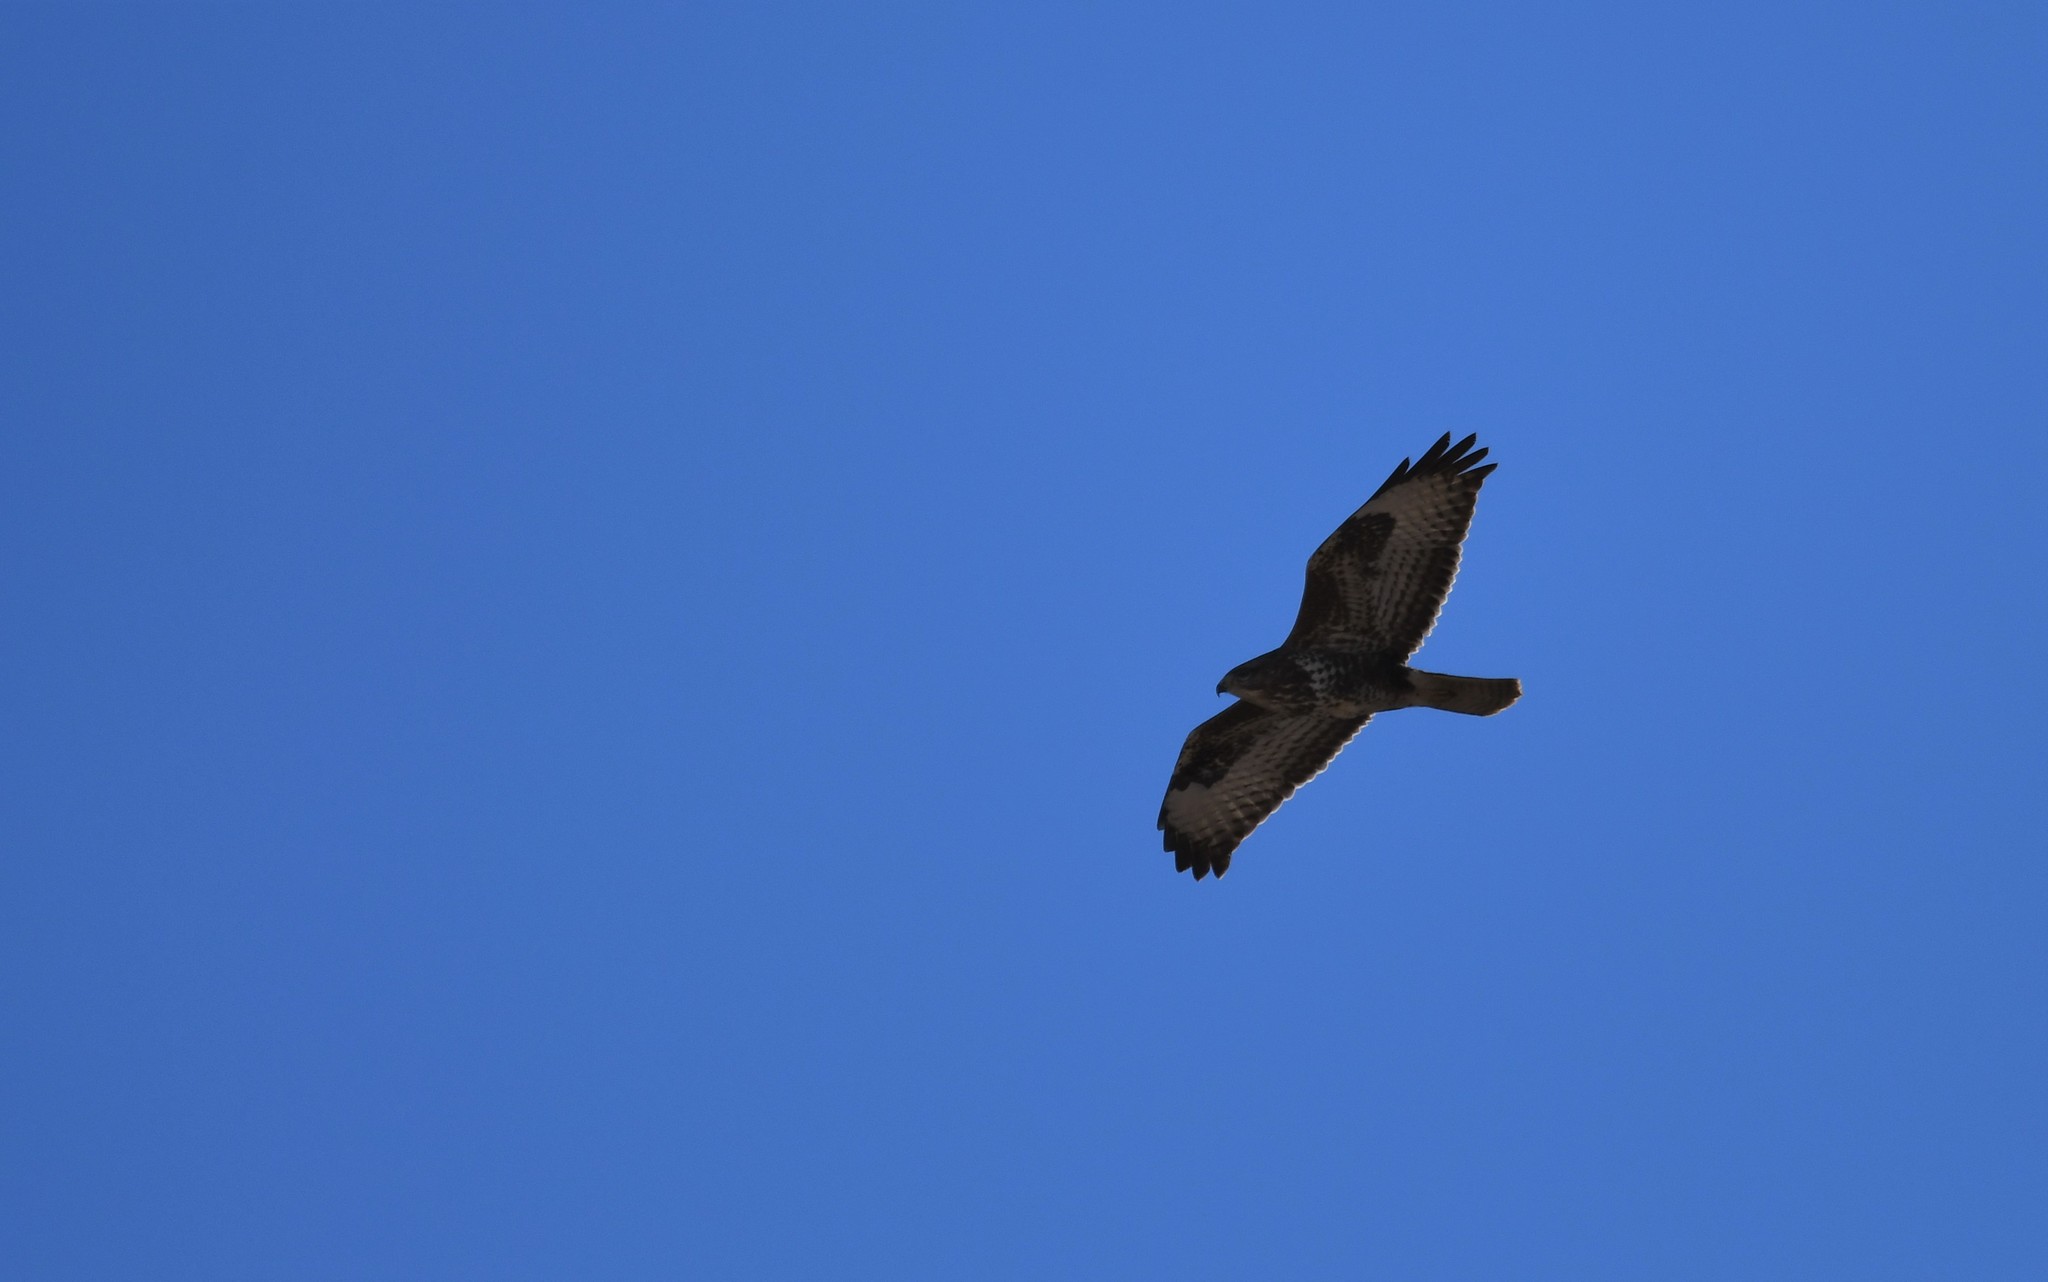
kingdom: Animalia
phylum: Chordata
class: Aves
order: Accipitriformes
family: Accipitridae
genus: Buteo
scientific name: Buteo buteo
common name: Common buzzard
